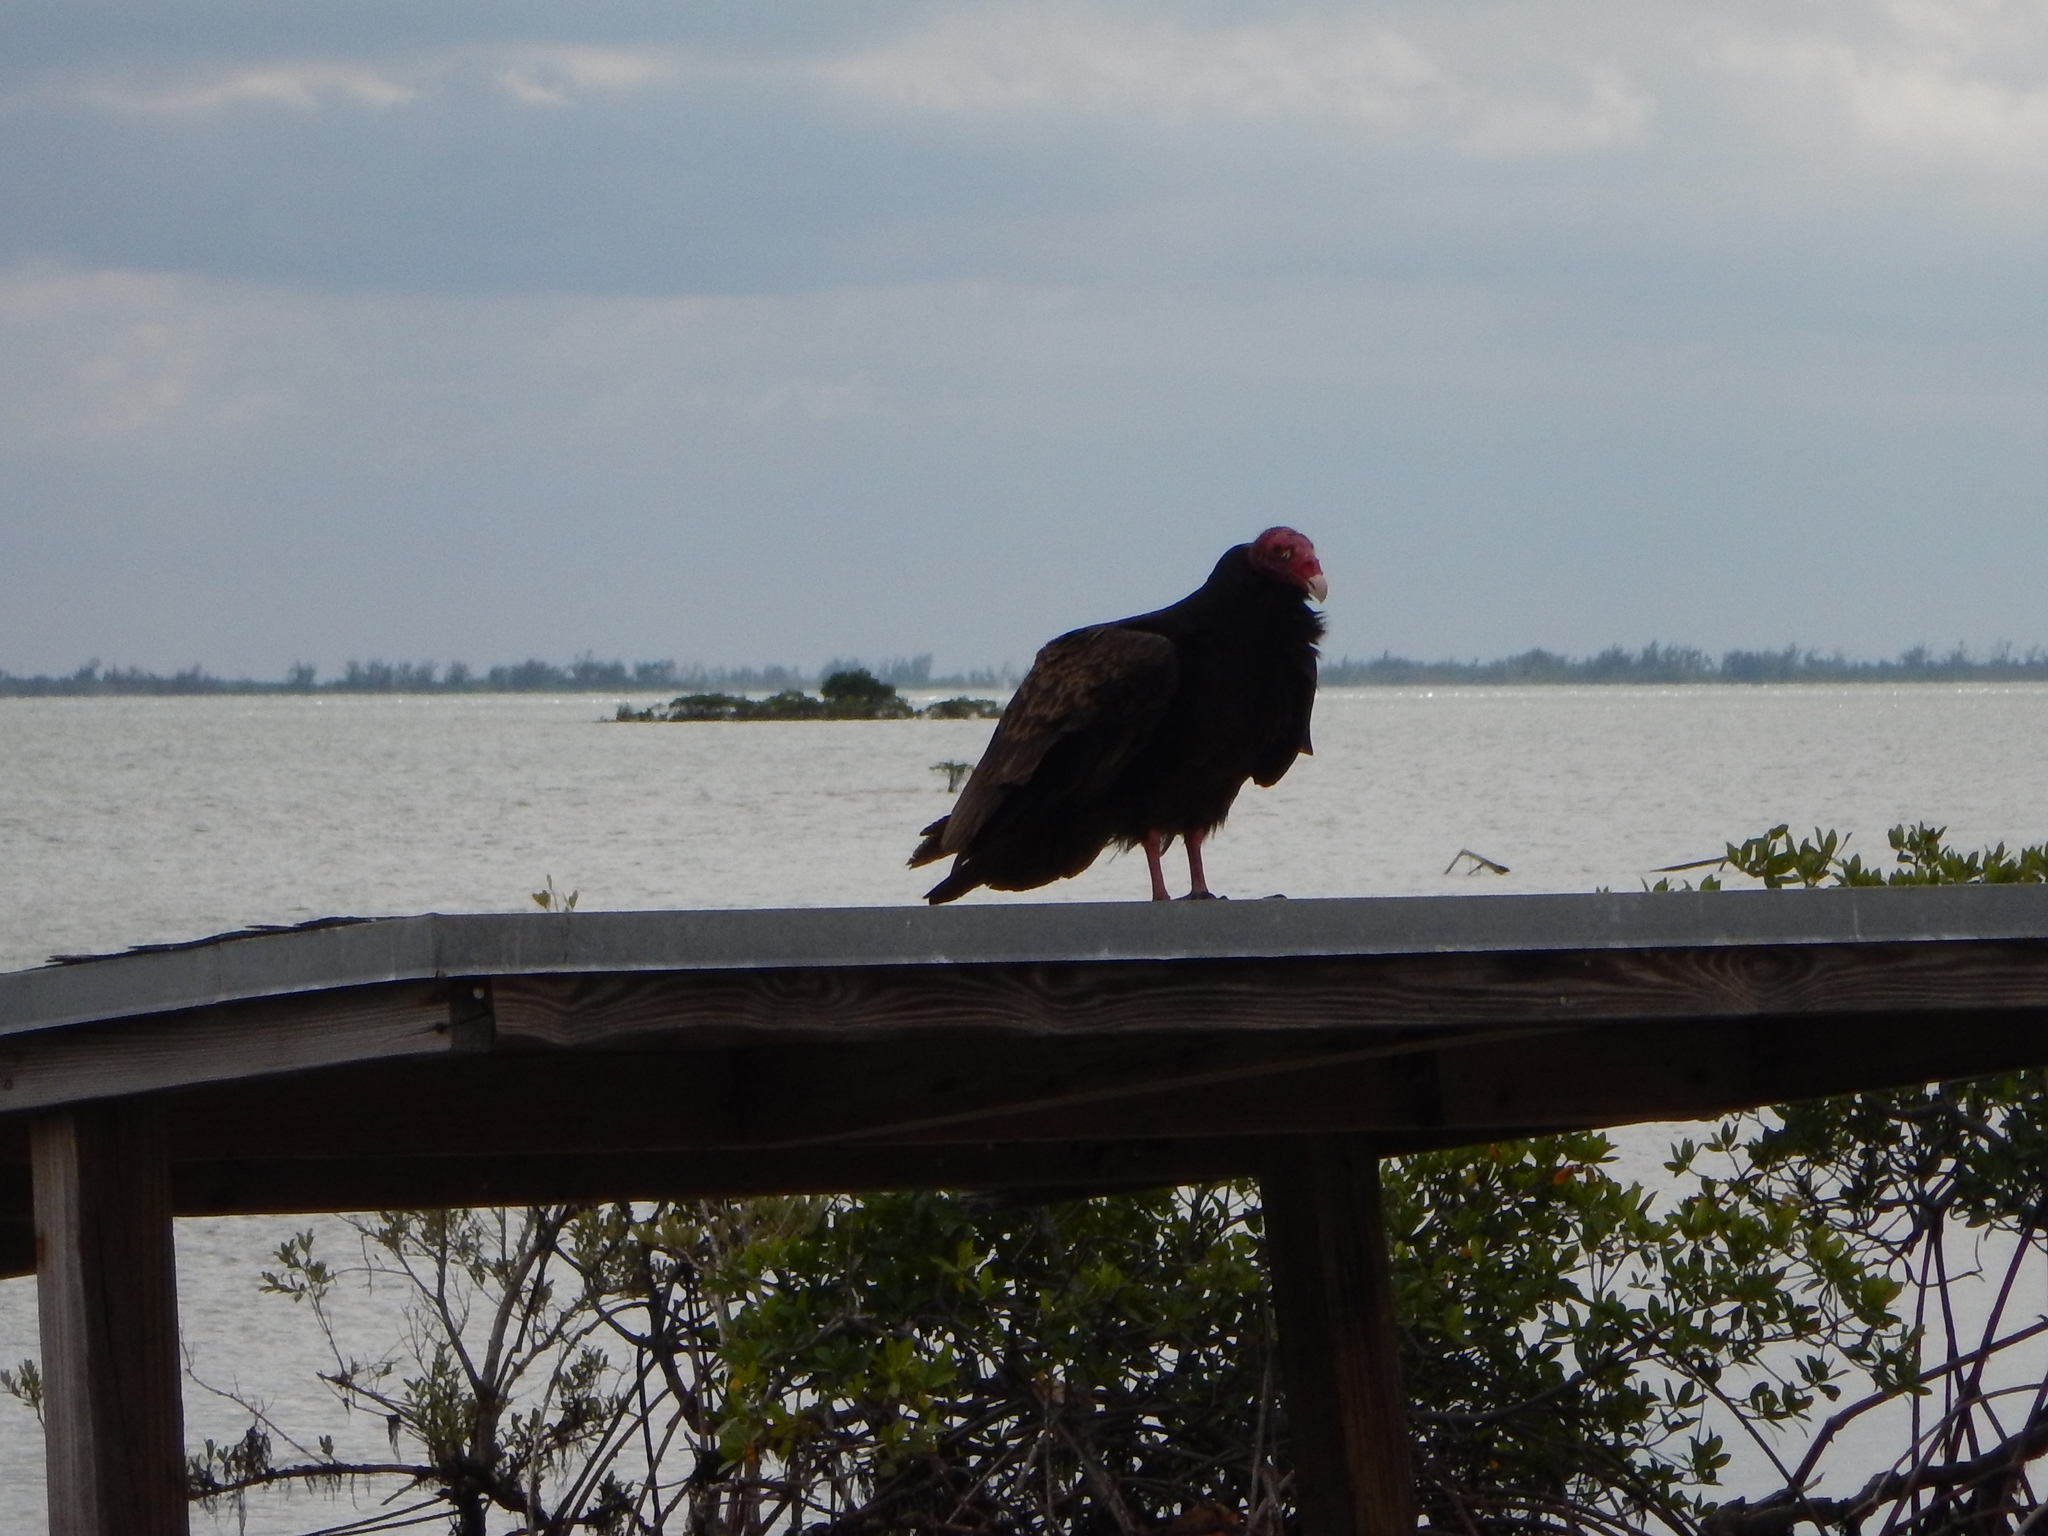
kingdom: Animalia
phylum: Chordata
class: Aves
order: Accipitriformes
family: Cathartidae
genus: Cathartes
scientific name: Cathartes aura
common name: Turkey vulture
